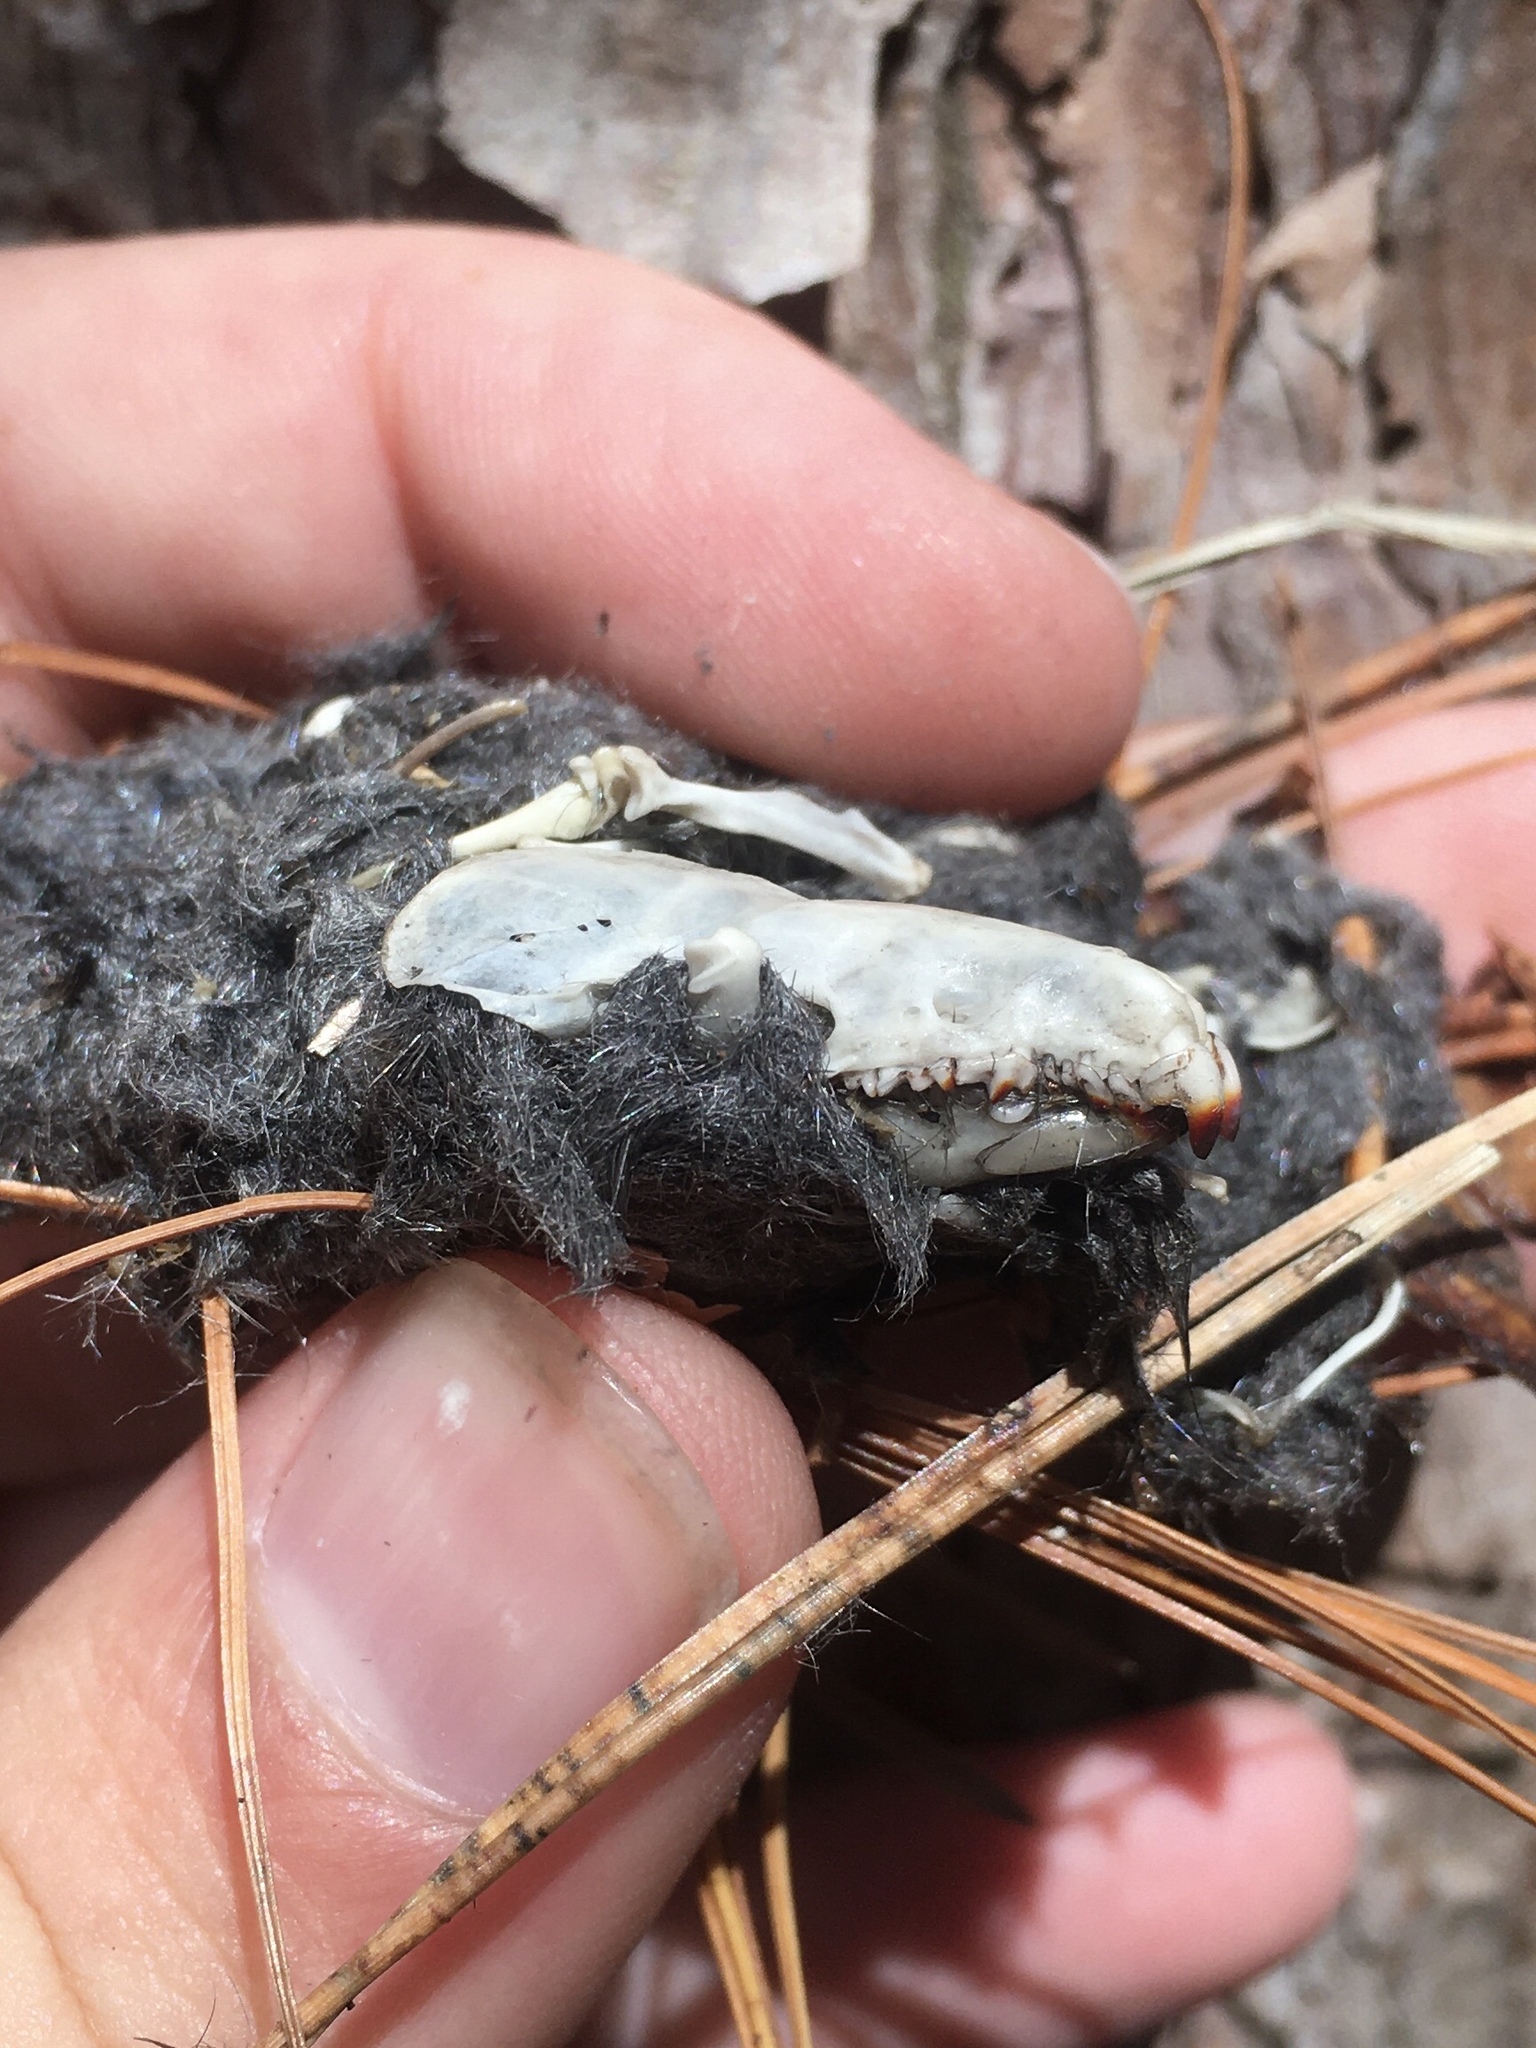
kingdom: Animalia
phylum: Chordata
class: Mammalia
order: Soricomorpha
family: Soricidae
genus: Blarina
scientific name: Blarina brevicauda
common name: Northern short-tailed shrew
